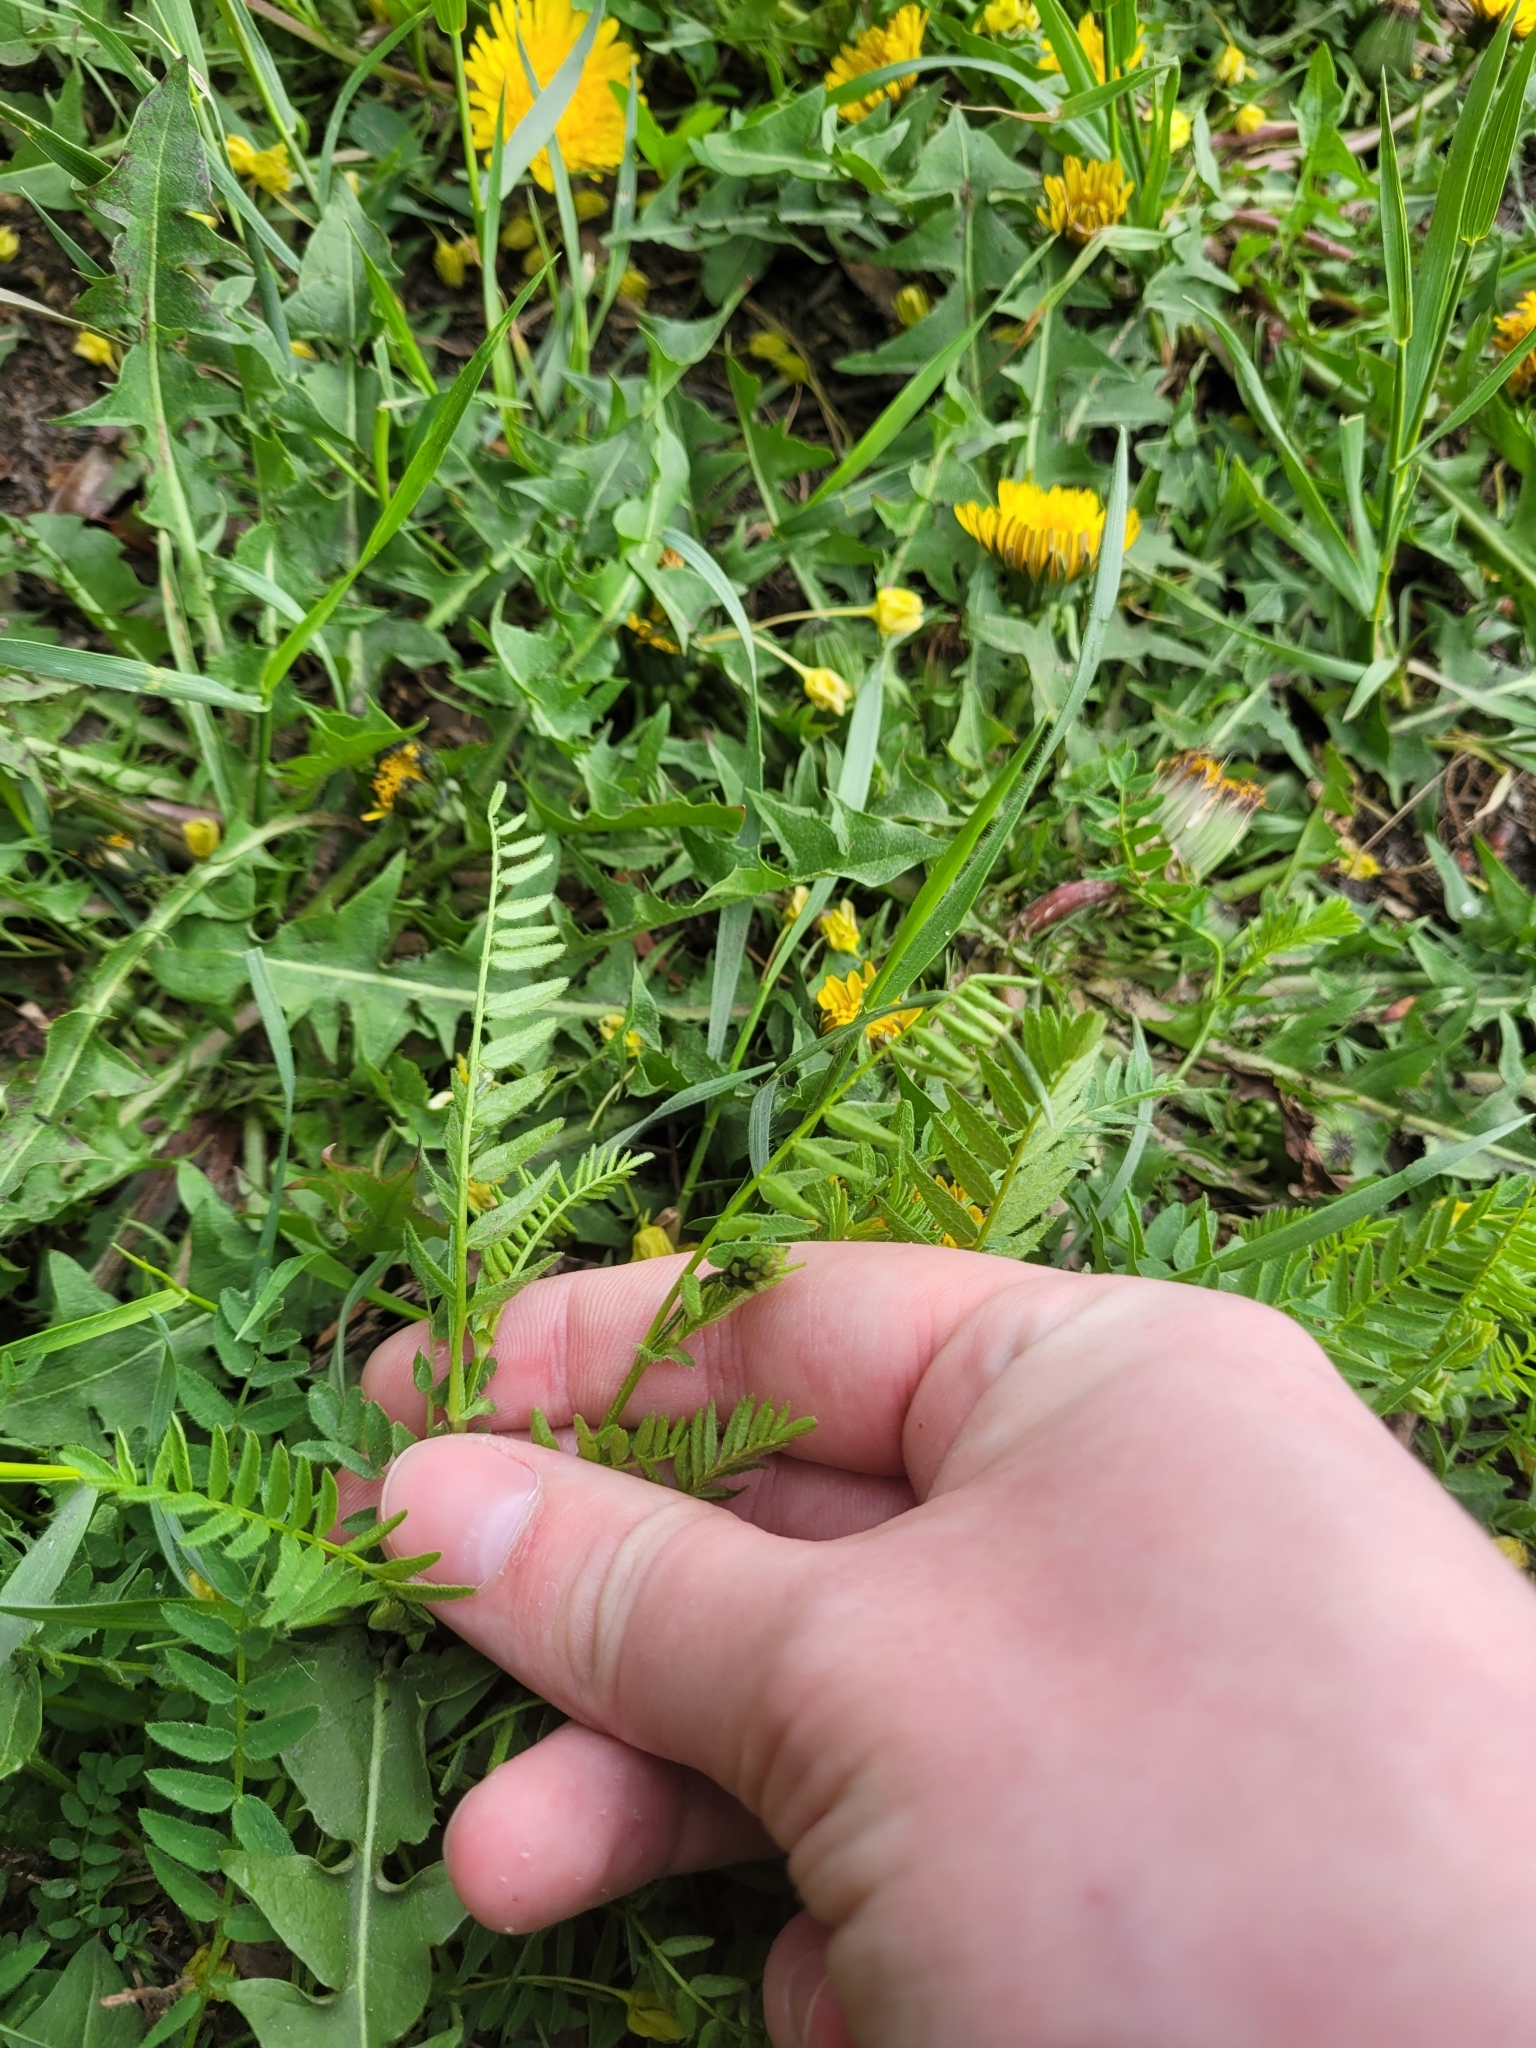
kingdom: Plantae
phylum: Tracheophyta
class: Magnoliopsida
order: Fabales
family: Fabaceae
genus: Astragalus
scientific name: Astragalus danicus
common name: Purple milk-vetch
